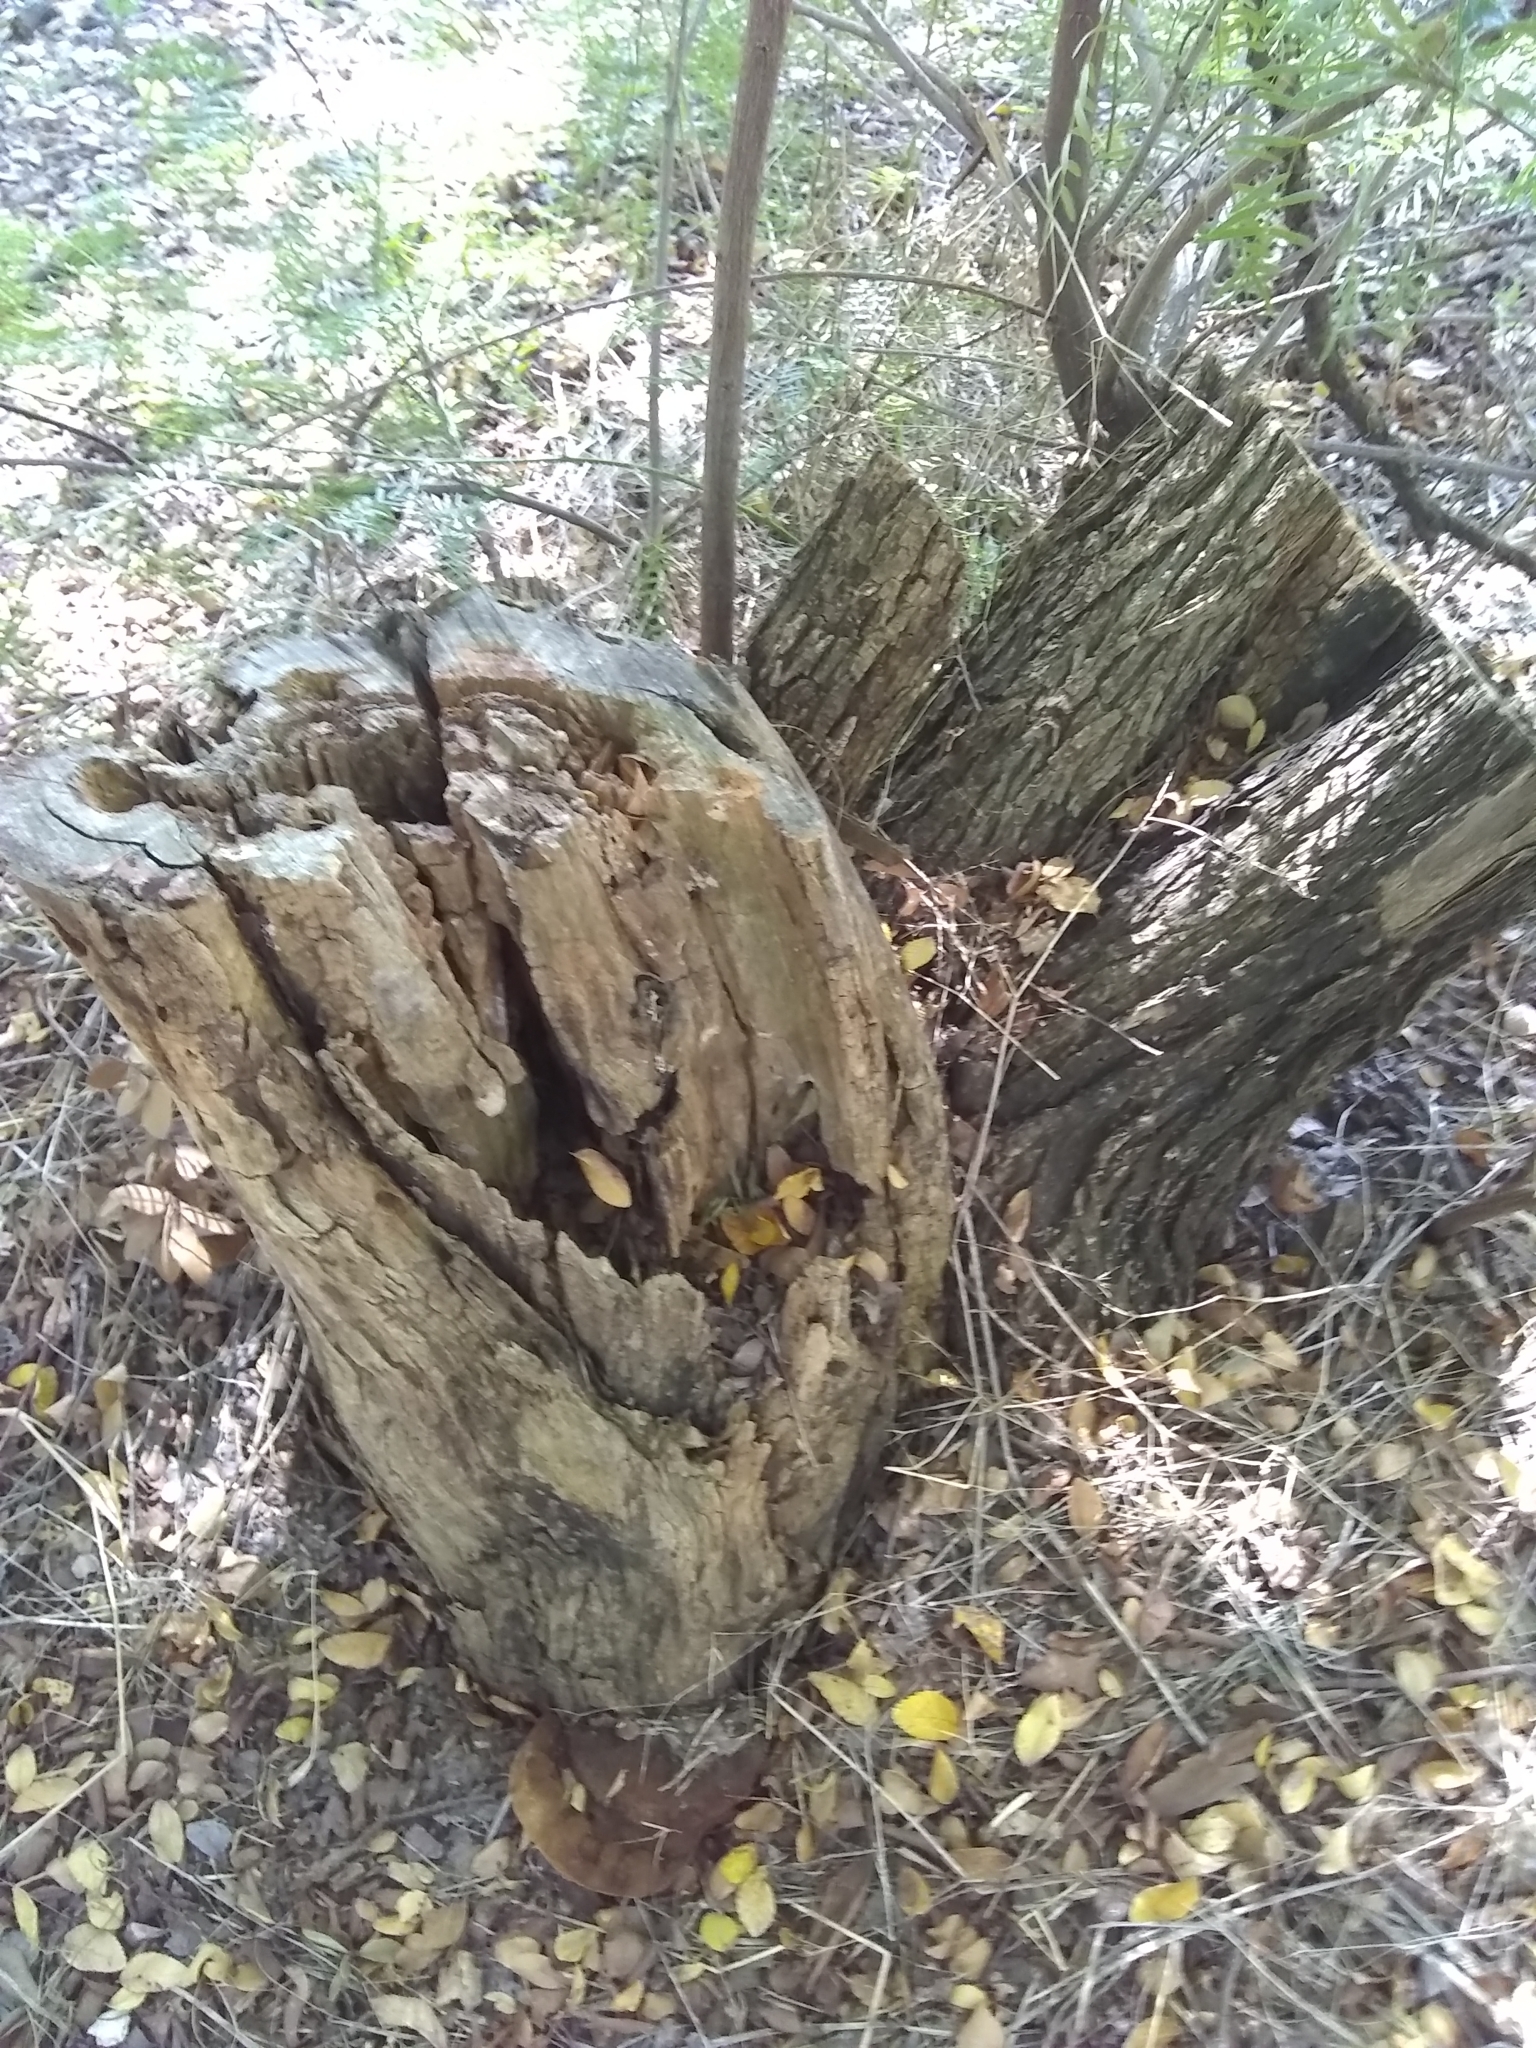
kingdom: Plantae
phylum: Tracheophyta
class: Magnoliopsida
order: Fabales
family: Fabaceae
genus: Prosopis
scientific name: Prosopis glandulosa
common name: Honey mesquite
